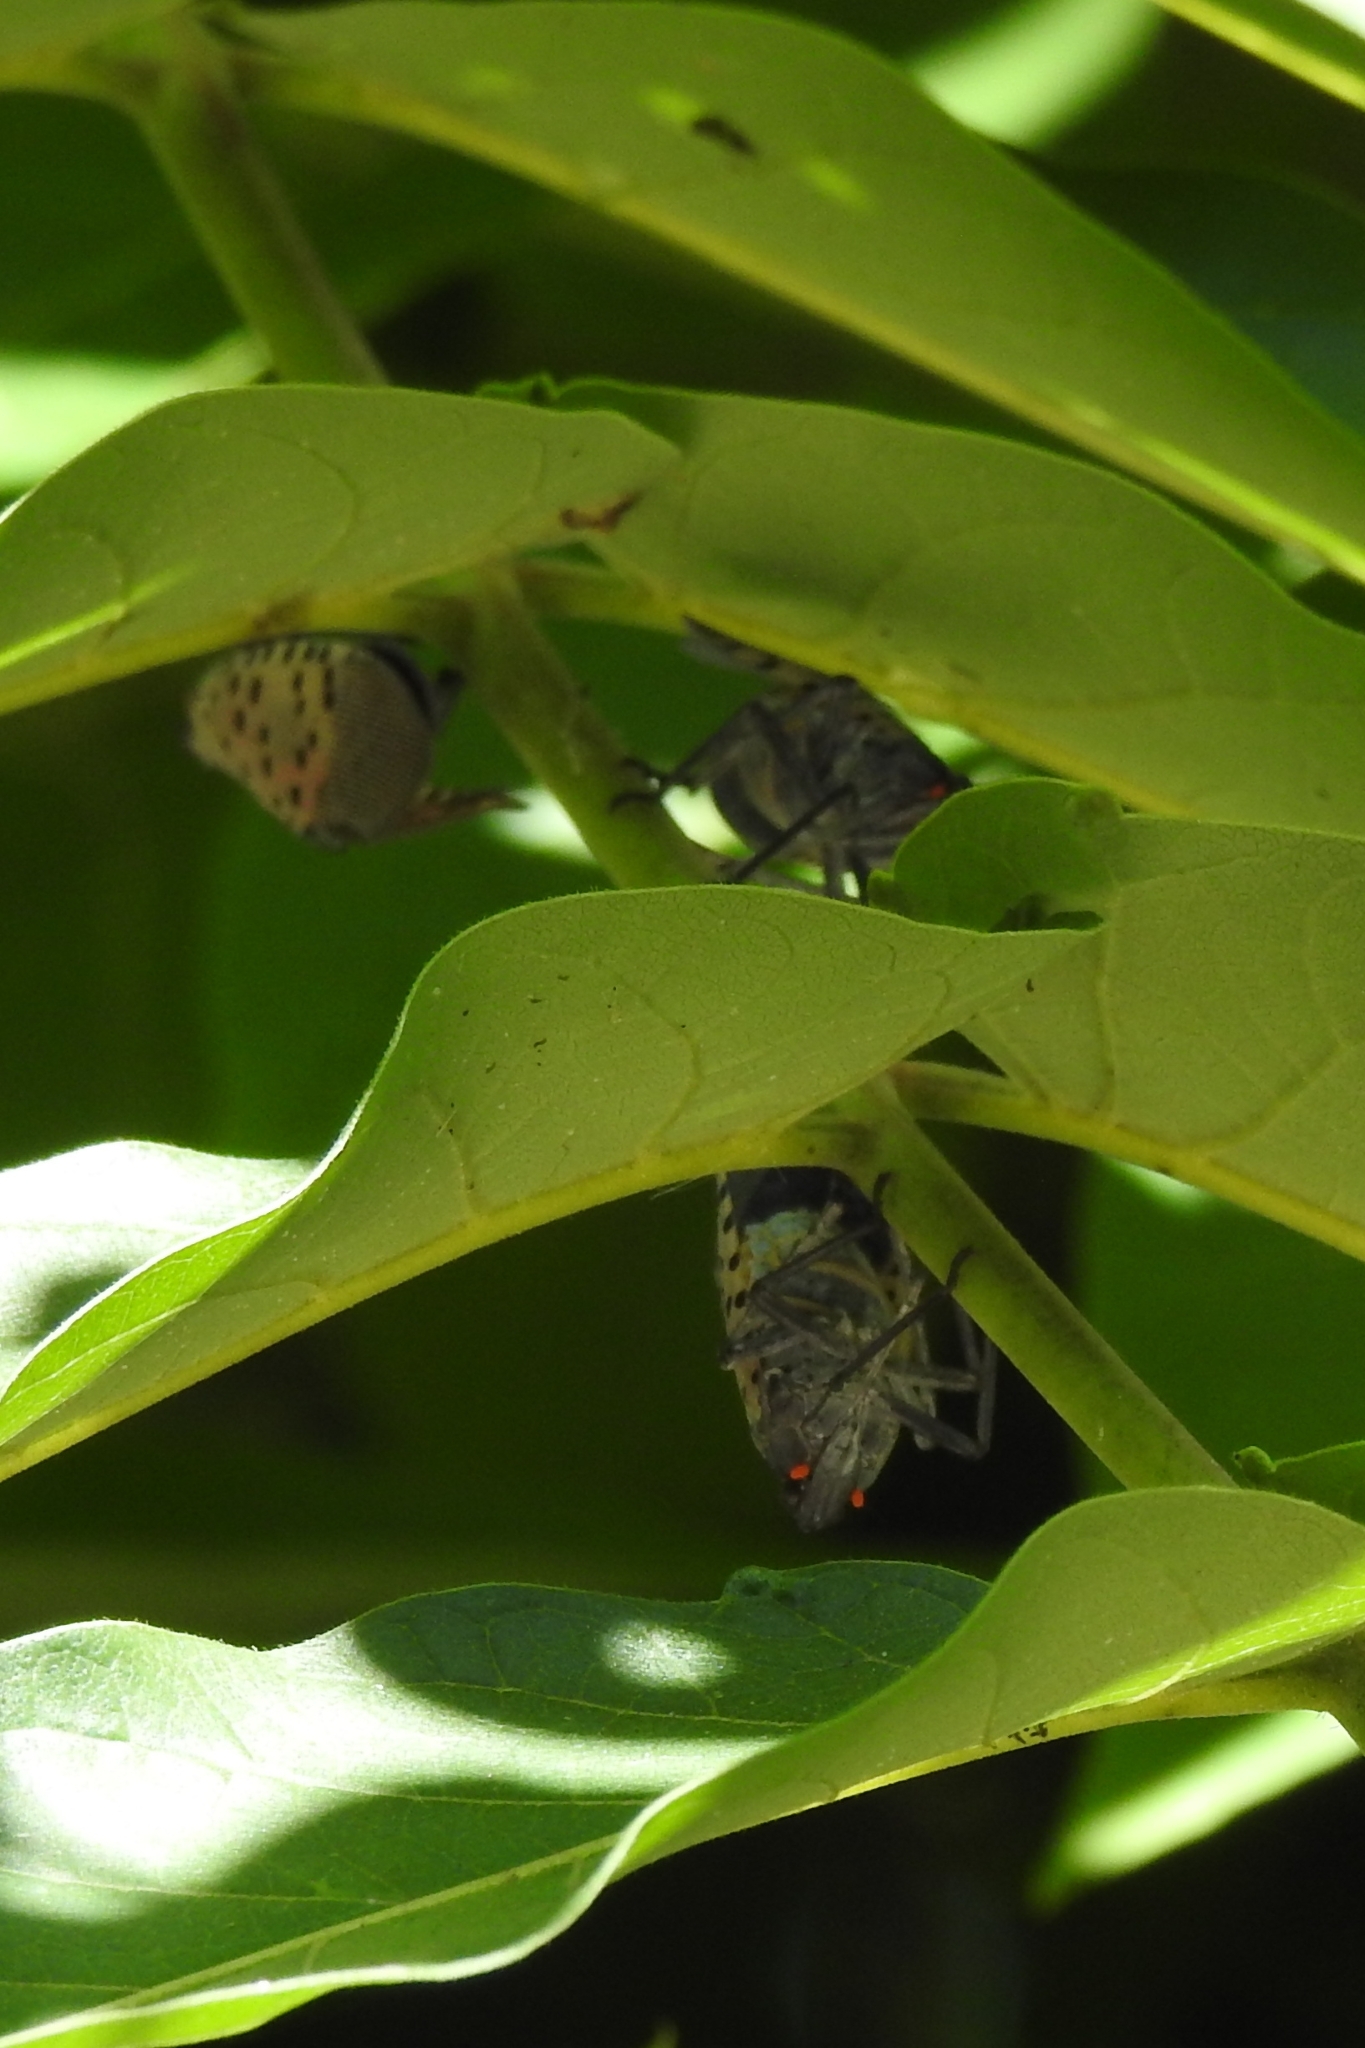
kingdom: Animalia
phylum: Arthropoda
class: Insecta
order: Hemiptera
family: Fulgoridae
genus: Lycorma
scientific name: Lycorma delicatula
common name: Spotted lanternfly
